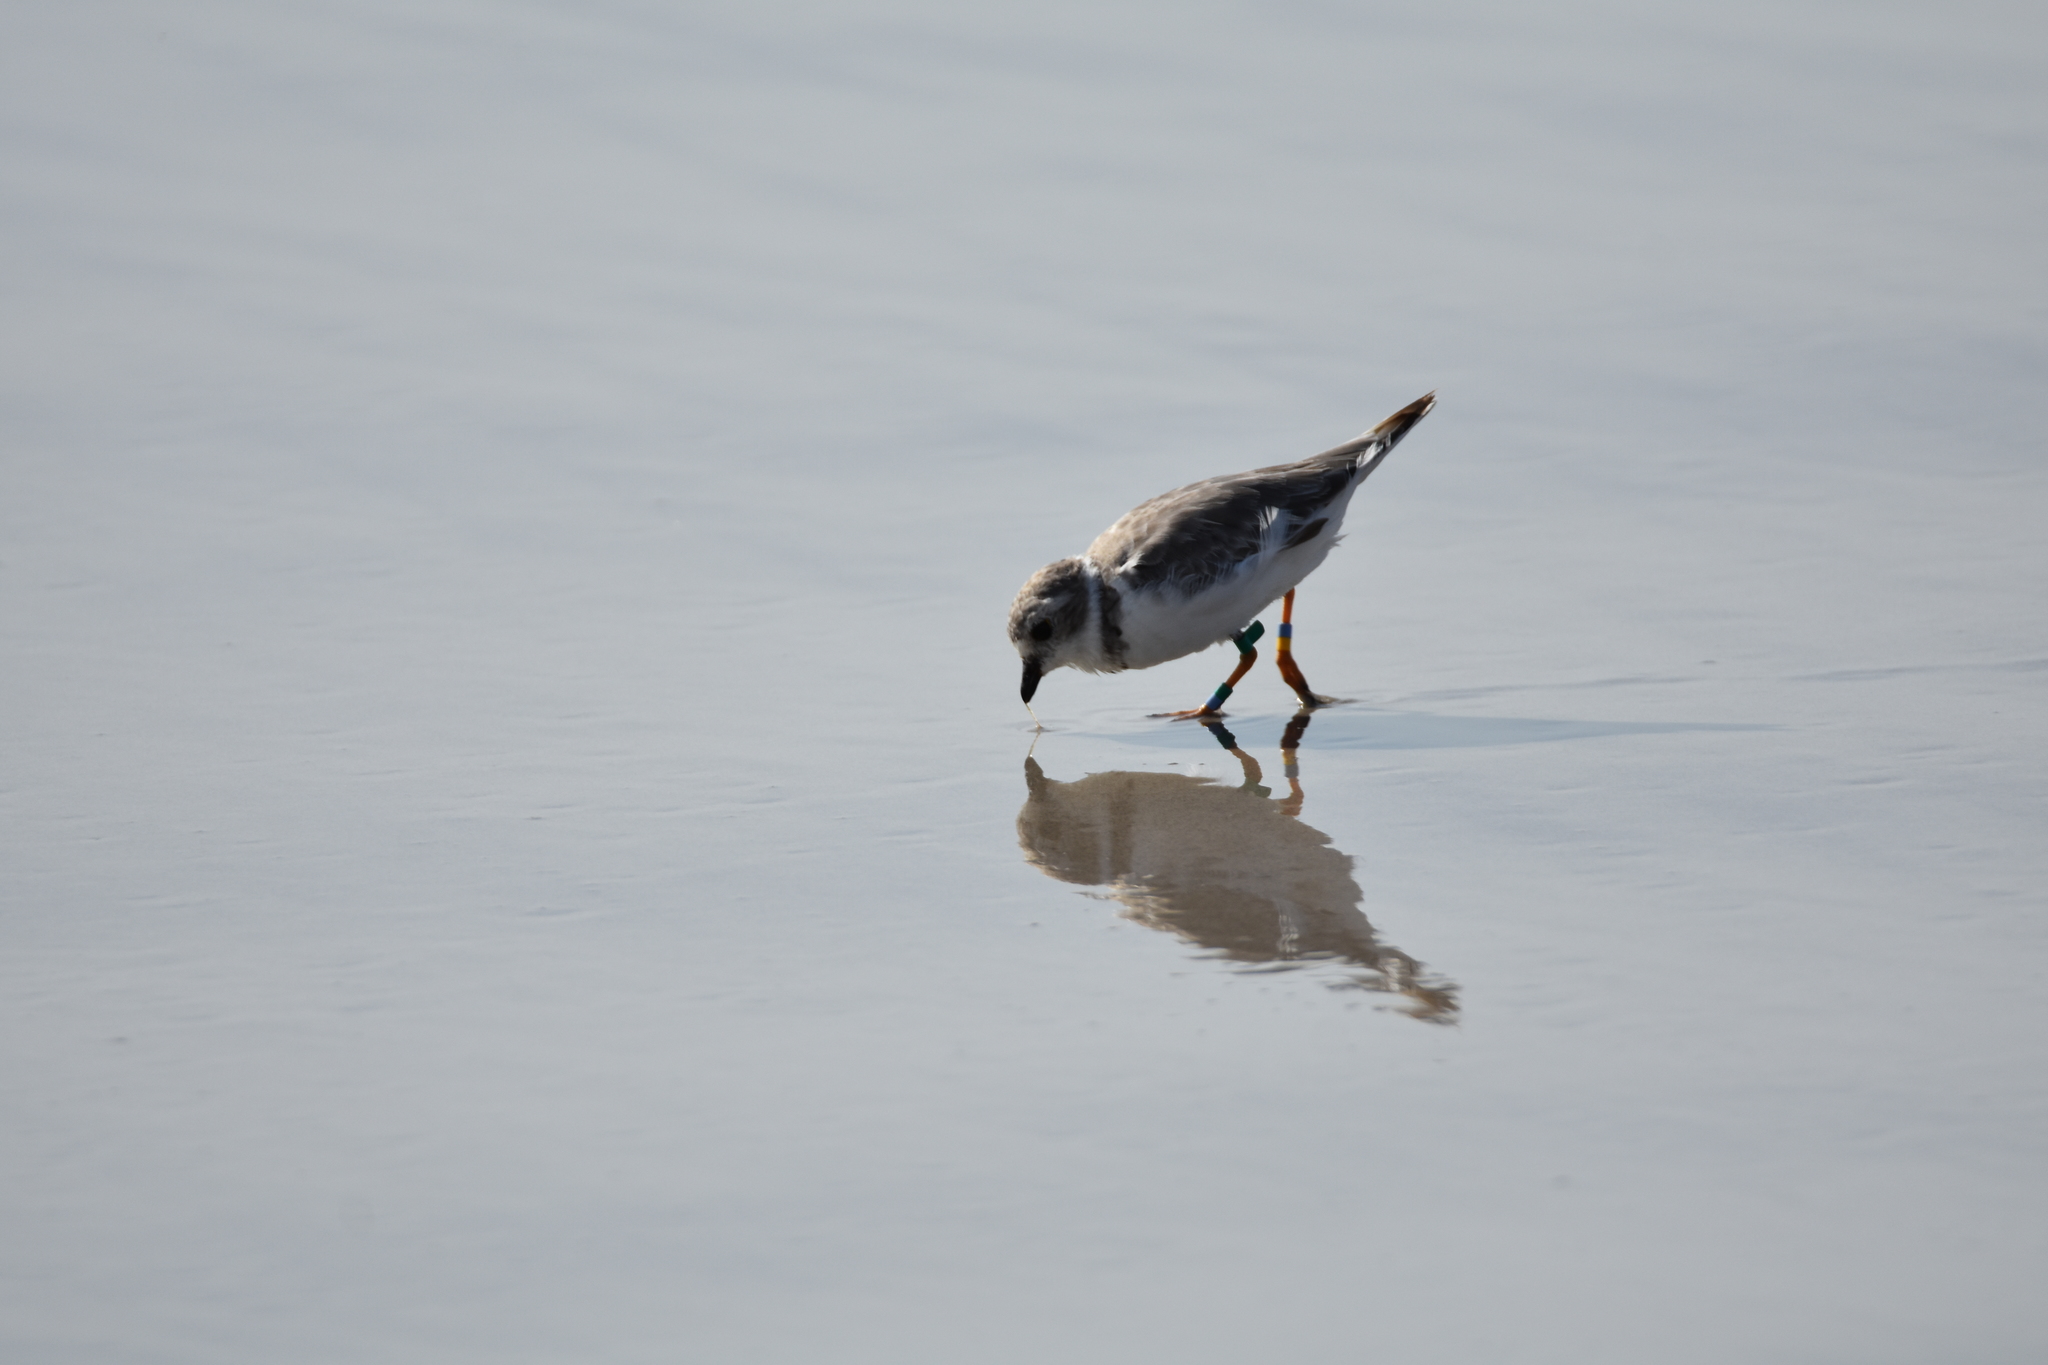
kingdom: Animalia
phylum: Chordata
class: Aves
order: Charadriiformes
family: Charadriidae
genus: Charadrius
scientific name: Charadrius melodus
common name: Piping plover
